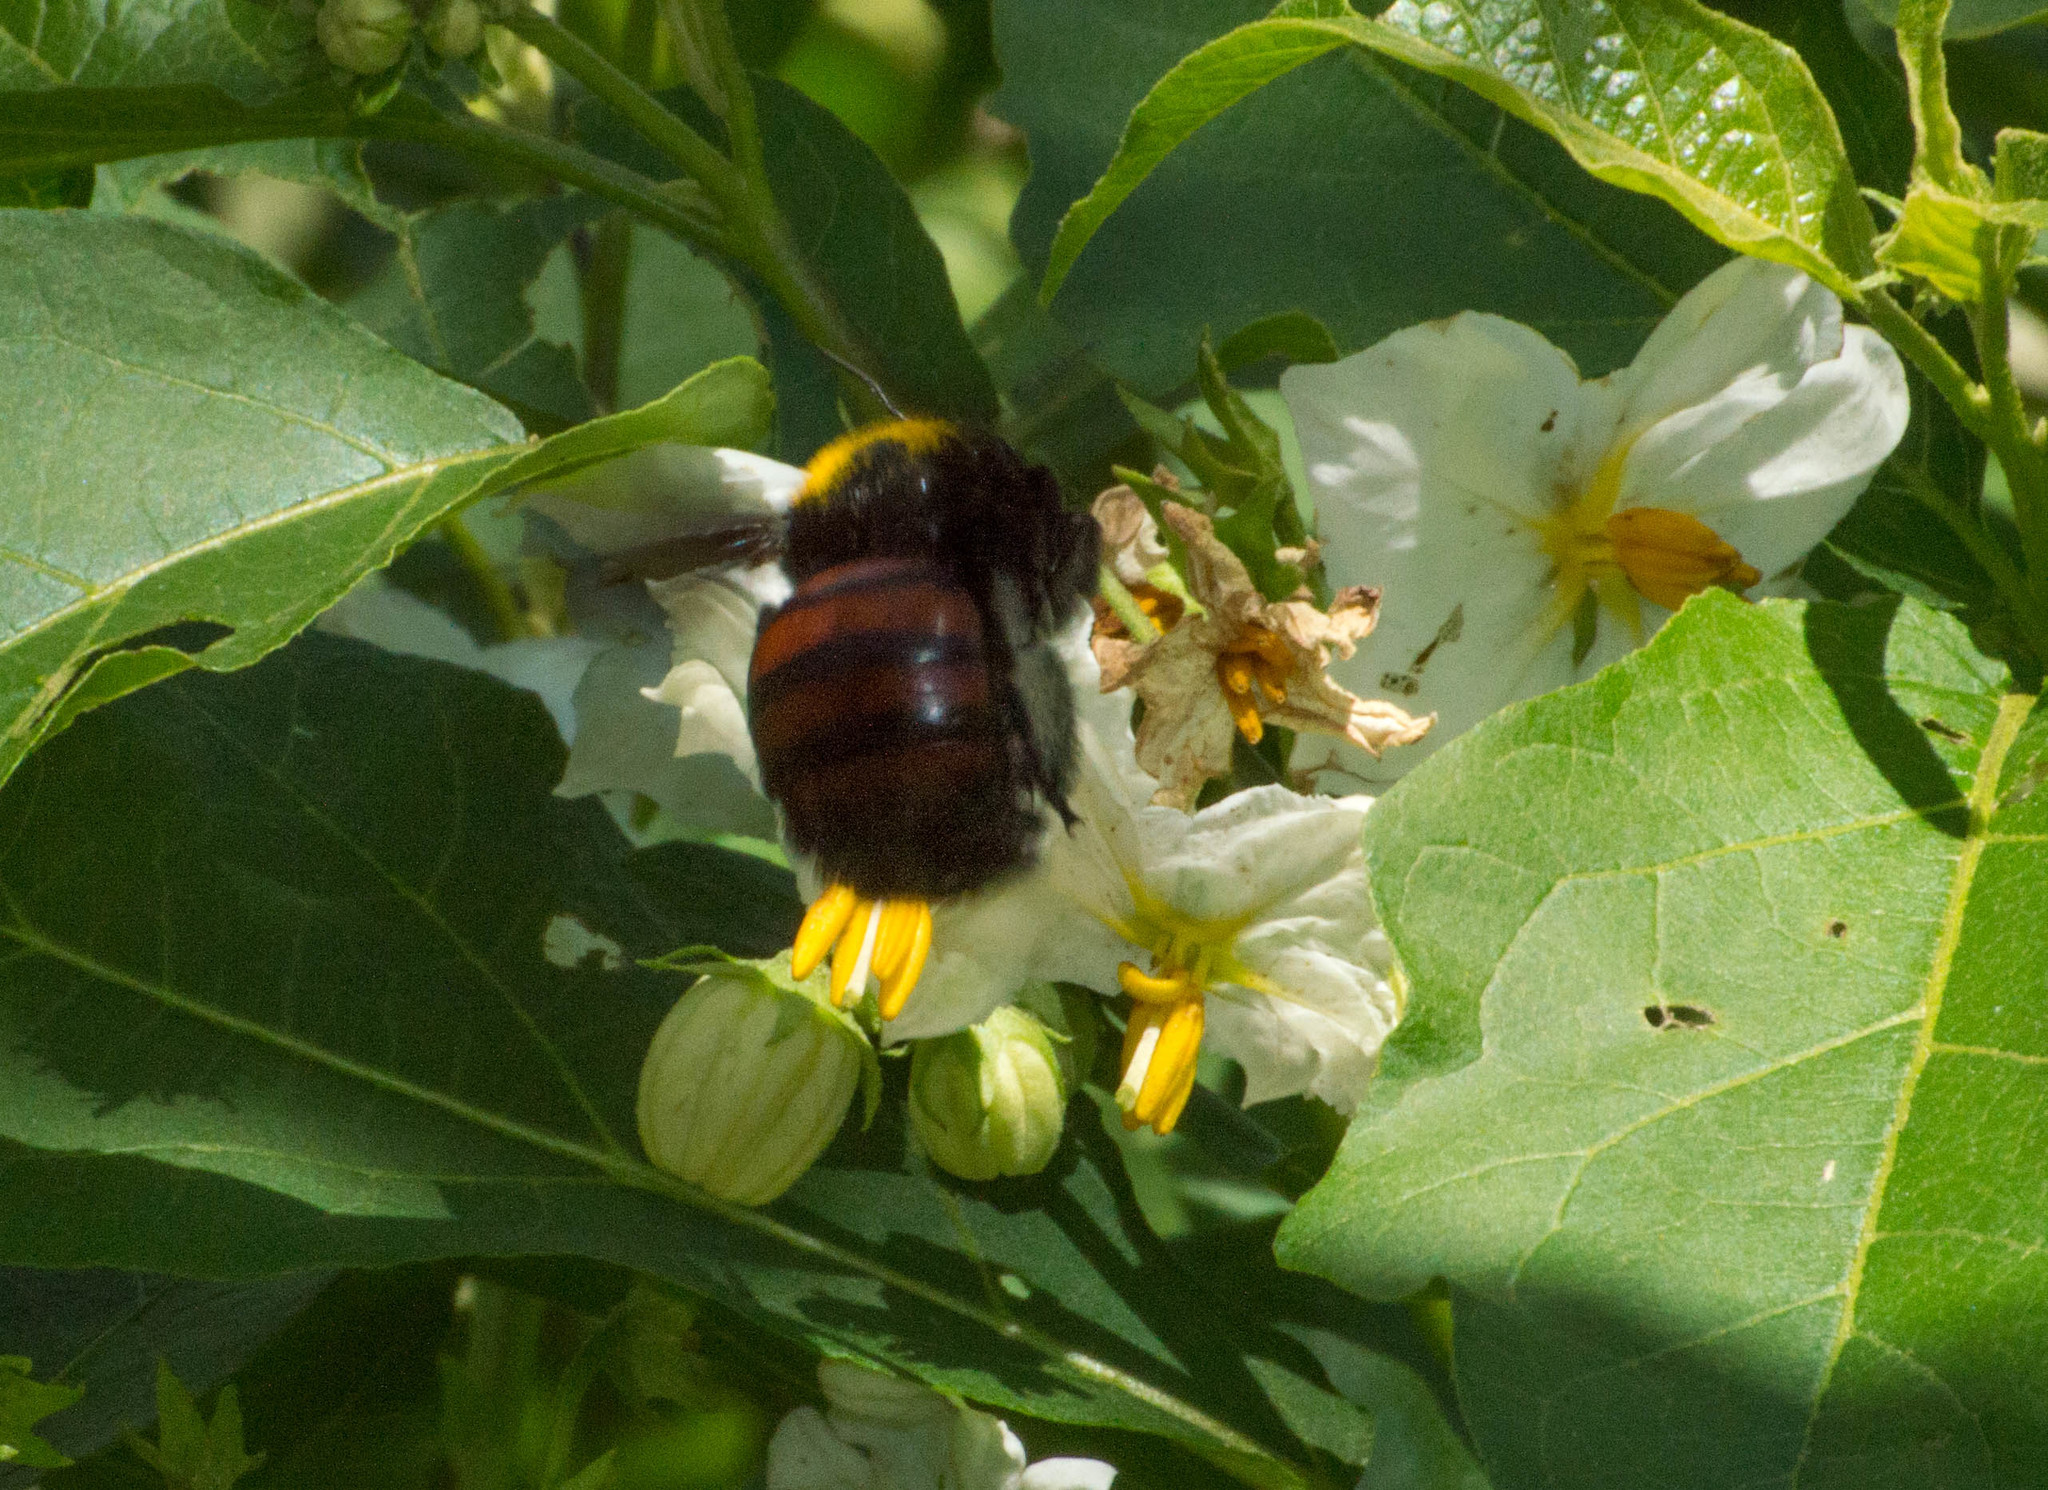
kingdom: Animalia
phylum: Arthropoda
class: Insecta
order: Hymenoptera
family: Apidae
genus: Xylocopa
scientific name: Xylocopa frontalis
